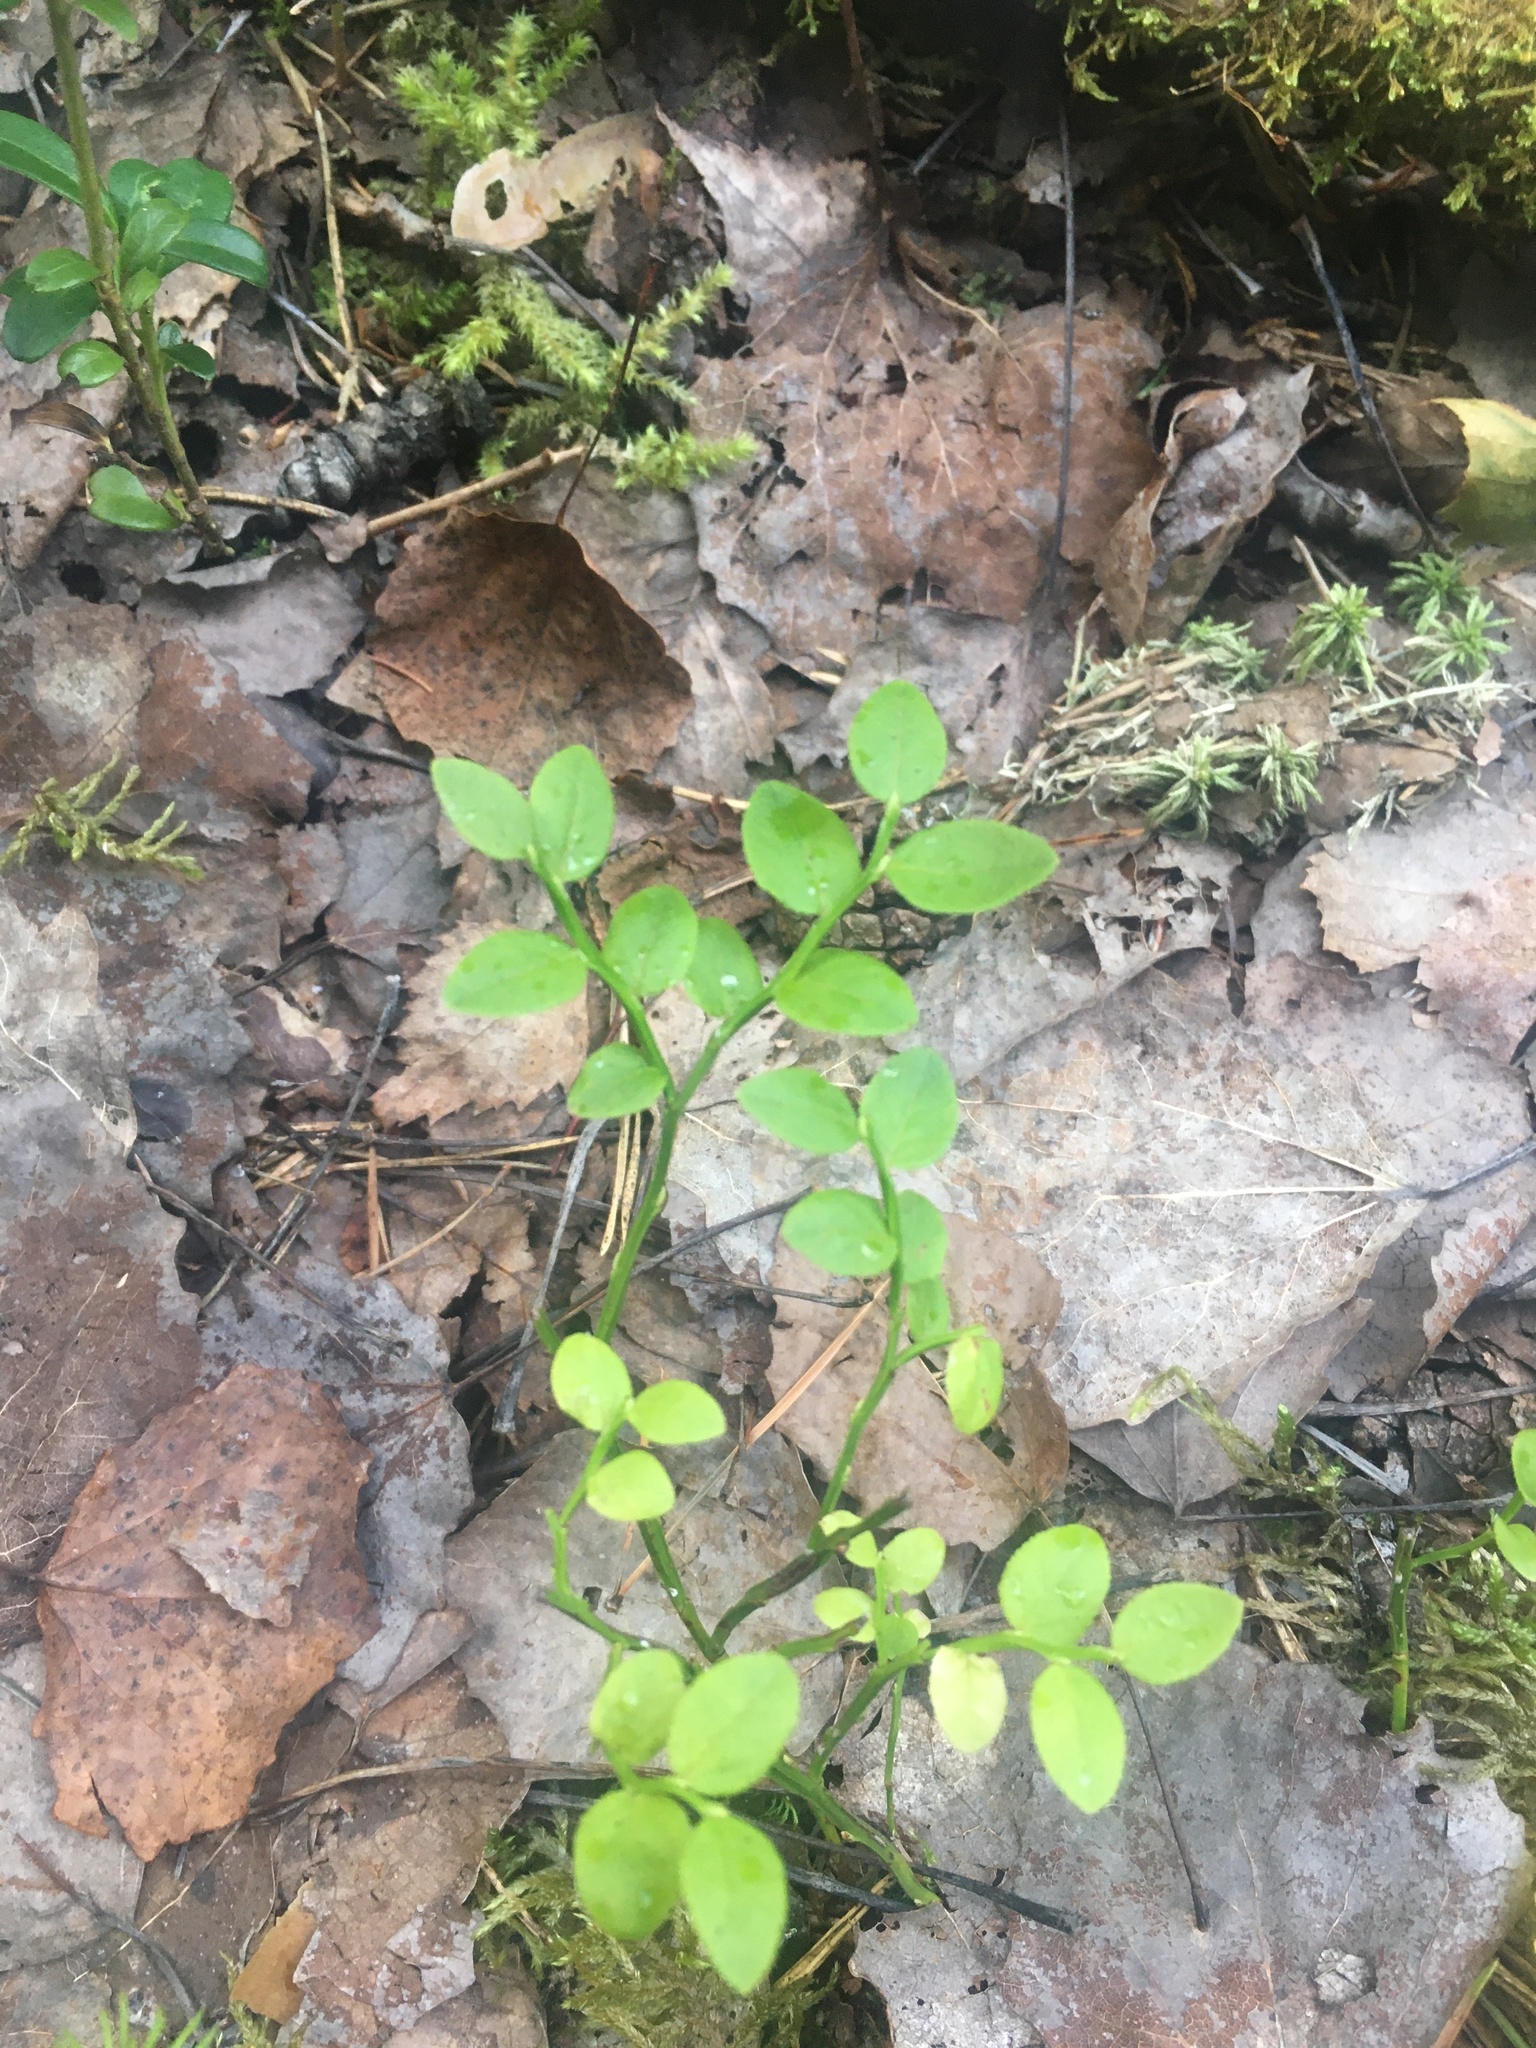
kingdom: Plantae
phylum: Tracheophyta
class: Magnoliopsida
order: Ericales
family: Ericaceae
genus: Vaccinium
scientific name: Vaccinium myrtillus
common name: Bilberry
